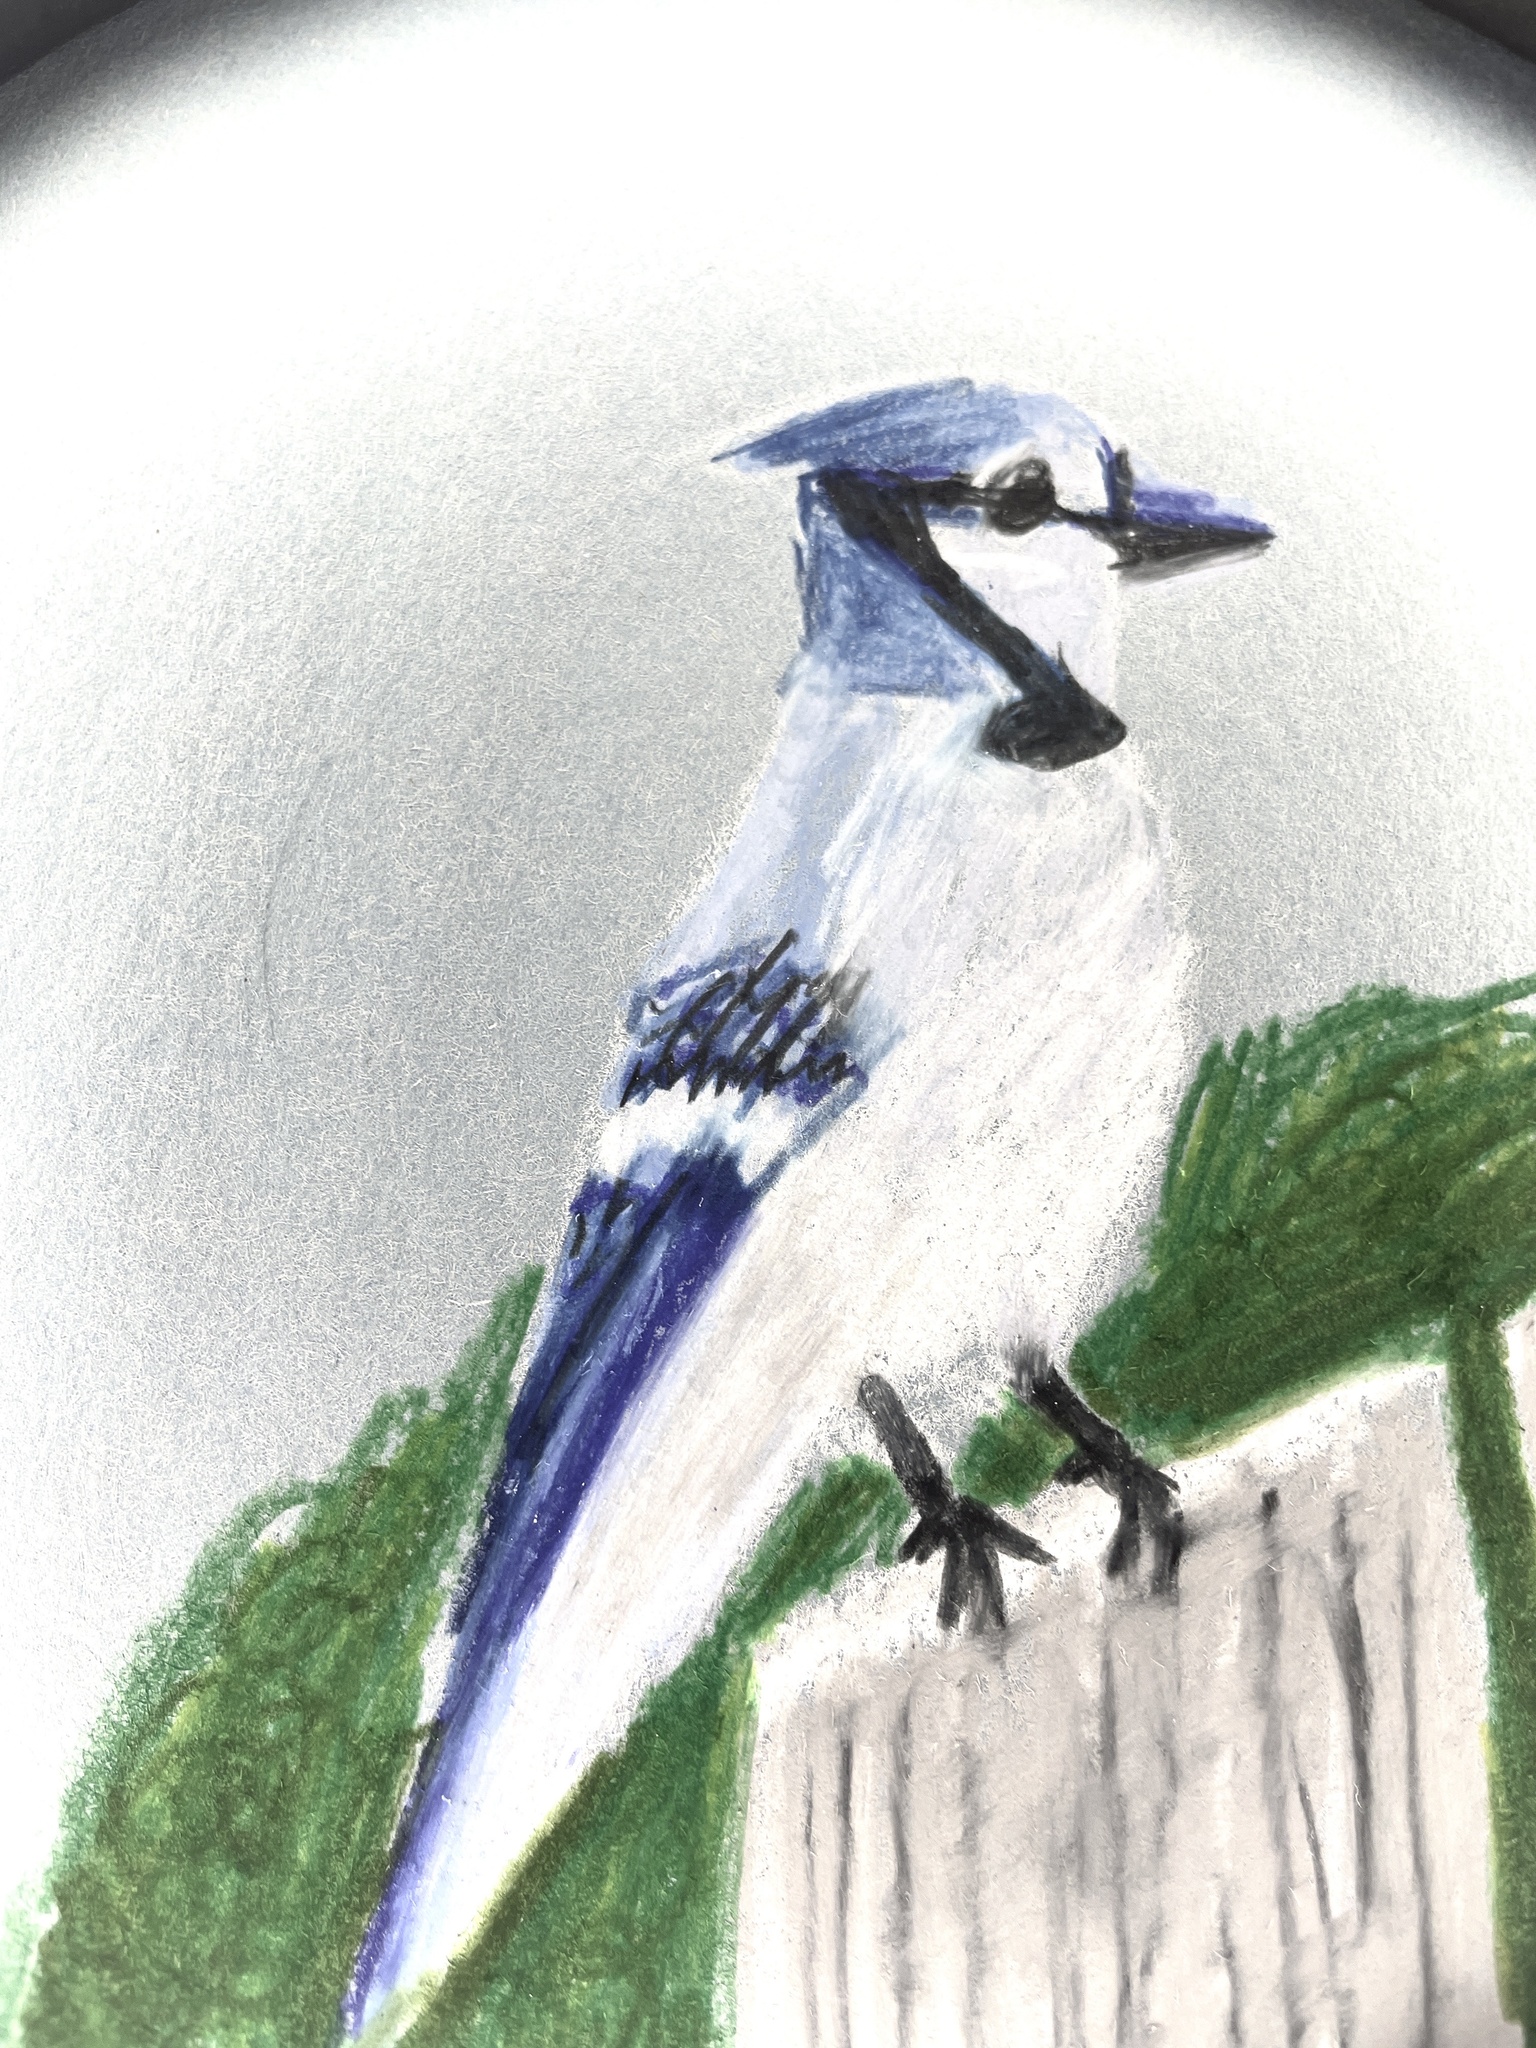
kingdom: Animalia
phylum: Chordata
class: Aves
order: Passeriformes
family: Corvidae
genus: Cyanocitta
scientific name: Cyanocitta cristata
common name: Blue jay
